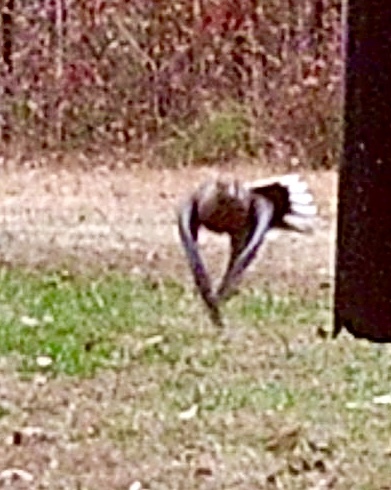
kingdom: Animalia
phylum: Chordata
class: Aves
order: Columbiformes
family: Columbidae
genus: Zenaida
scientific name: Zenaida macroura
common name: Mourning dove
